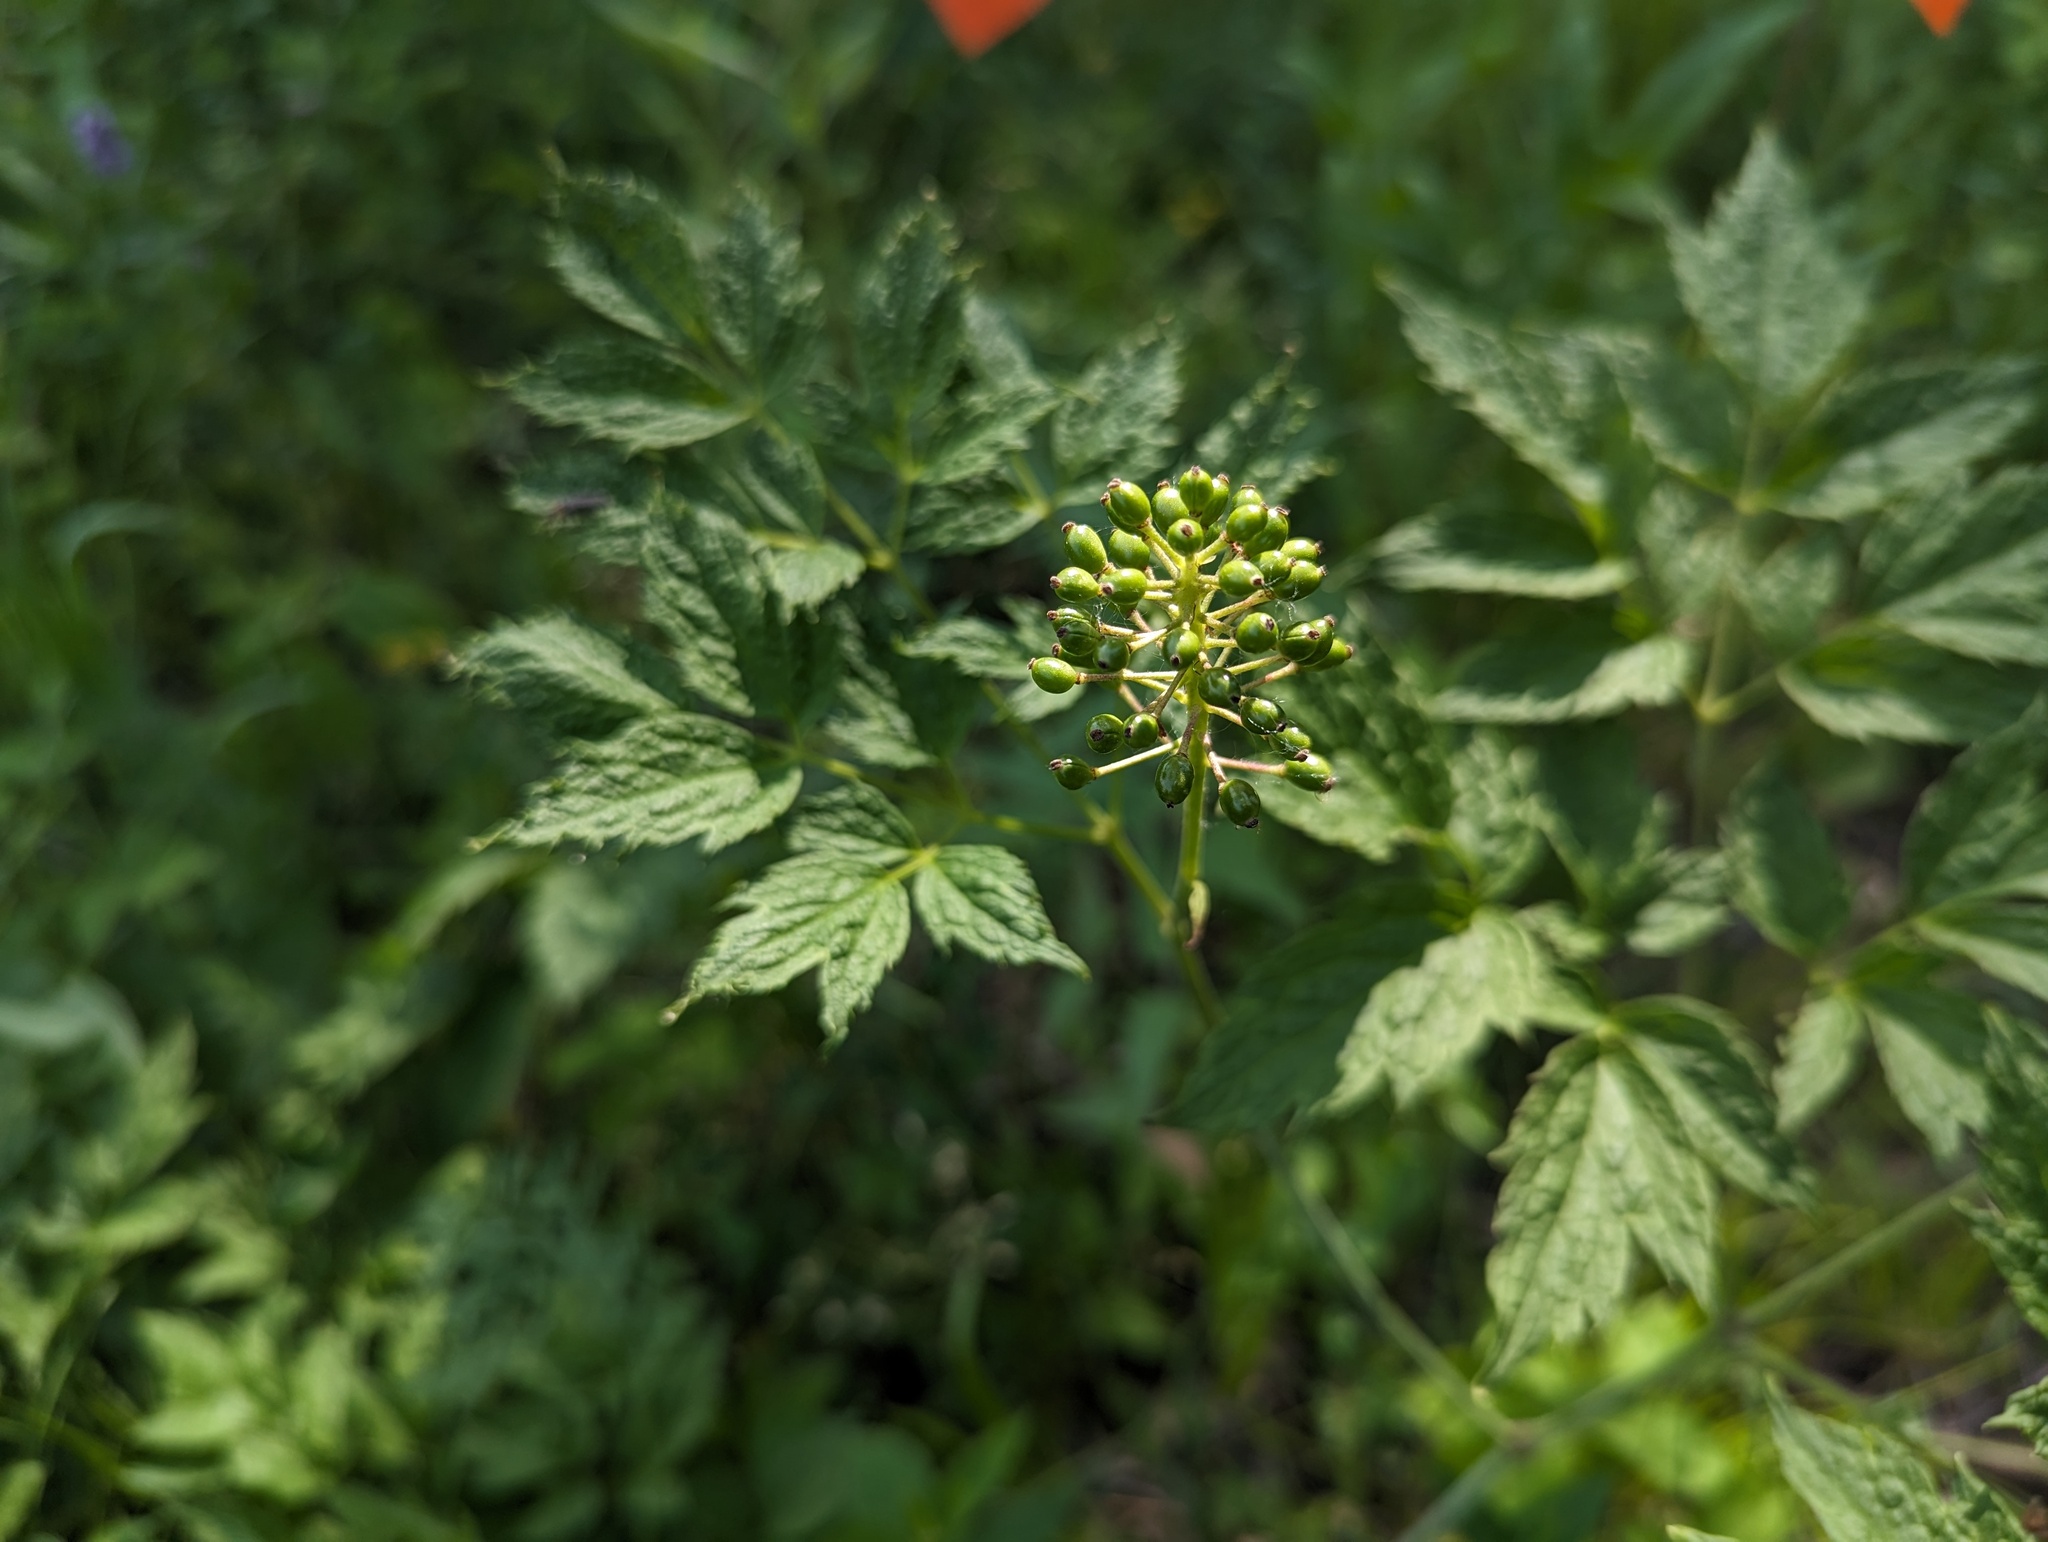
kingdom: Plantae
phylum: Tracheophyta
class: Magnoliopsida
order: Ranunculales
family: Ranunculaceae
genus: Actaea
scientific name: Actaea rubra
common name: Red baneberry
